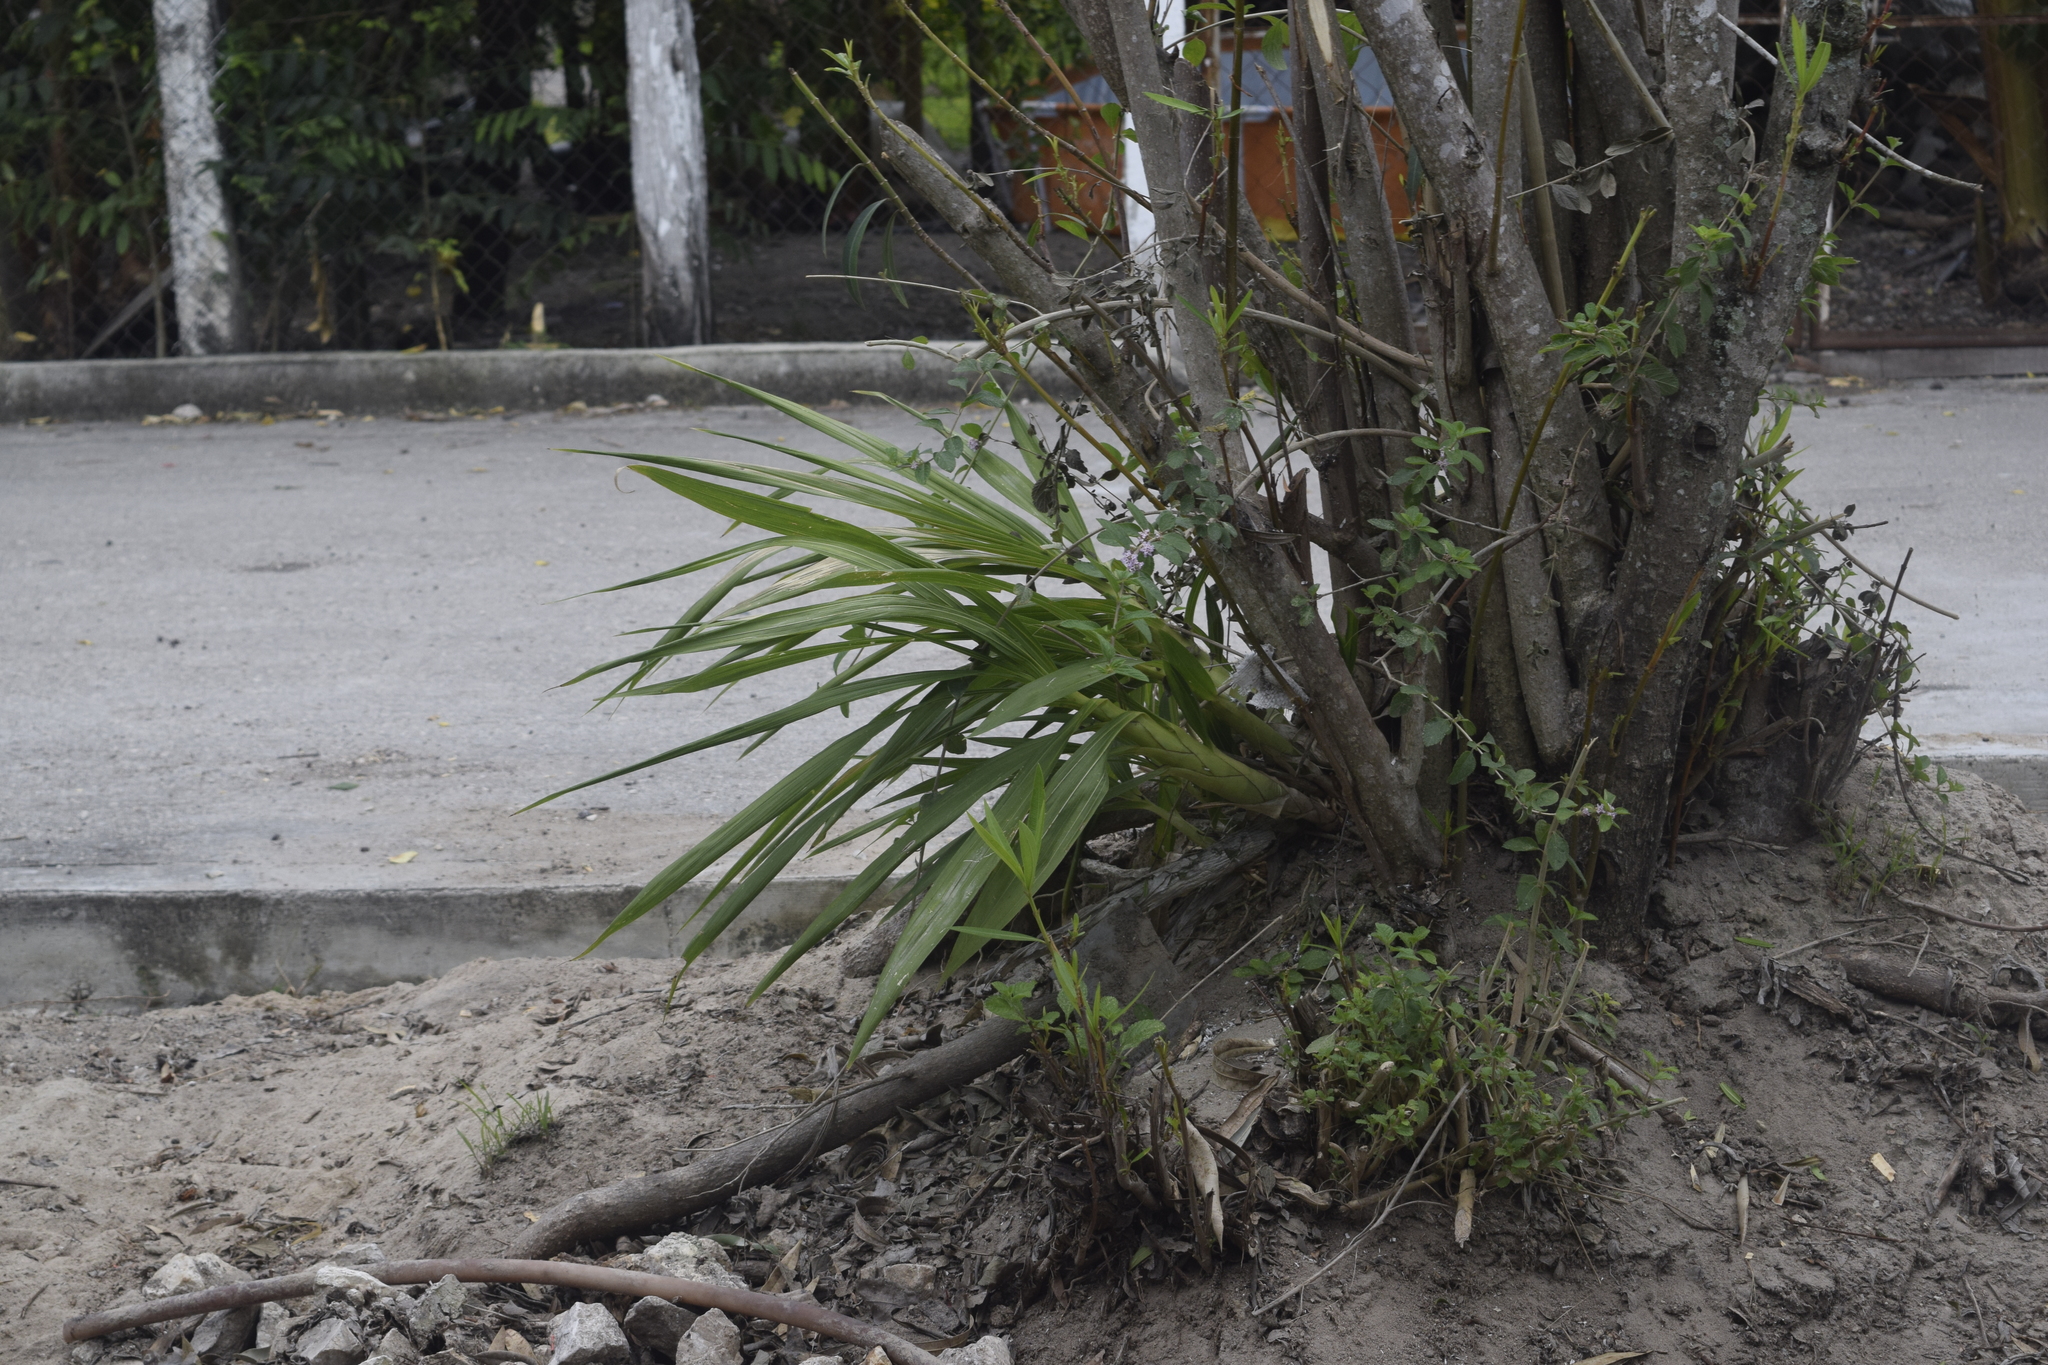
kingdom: Plantae
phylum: Tracheophyta
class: Liliopsida
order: Asparagales
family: Orchidaceae
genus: Cyrtopodium
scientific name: Cyrtopodium macrobulbon
